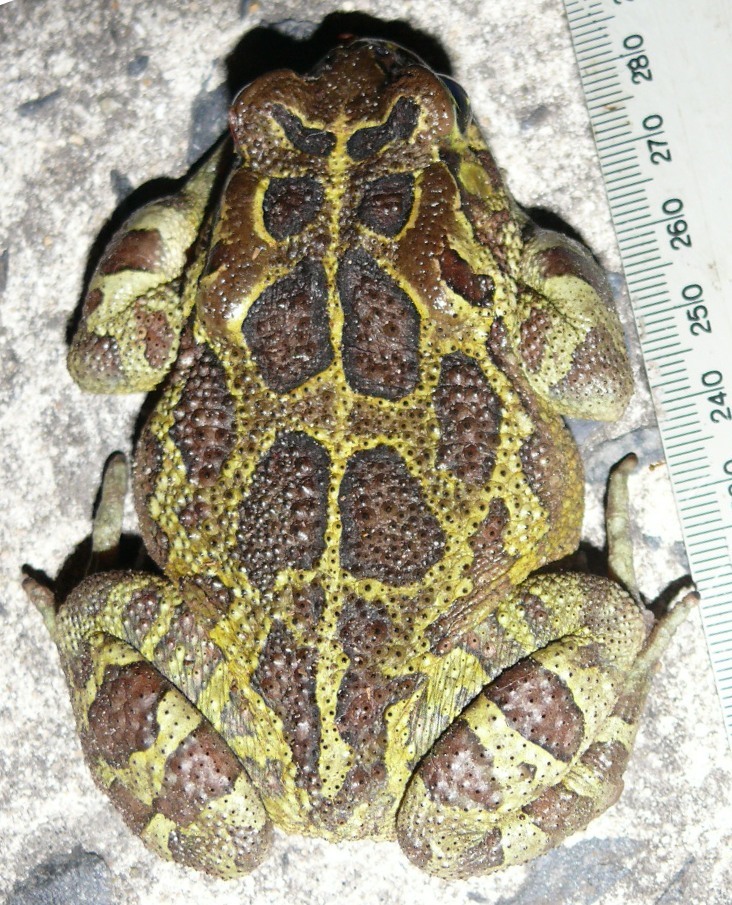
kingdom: Animalia
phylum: Chordata
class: Amphibia
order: Anura
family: Bufonidae
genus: Sclerophrys
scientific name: Sclerophrys pantherina
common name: Panther toad
